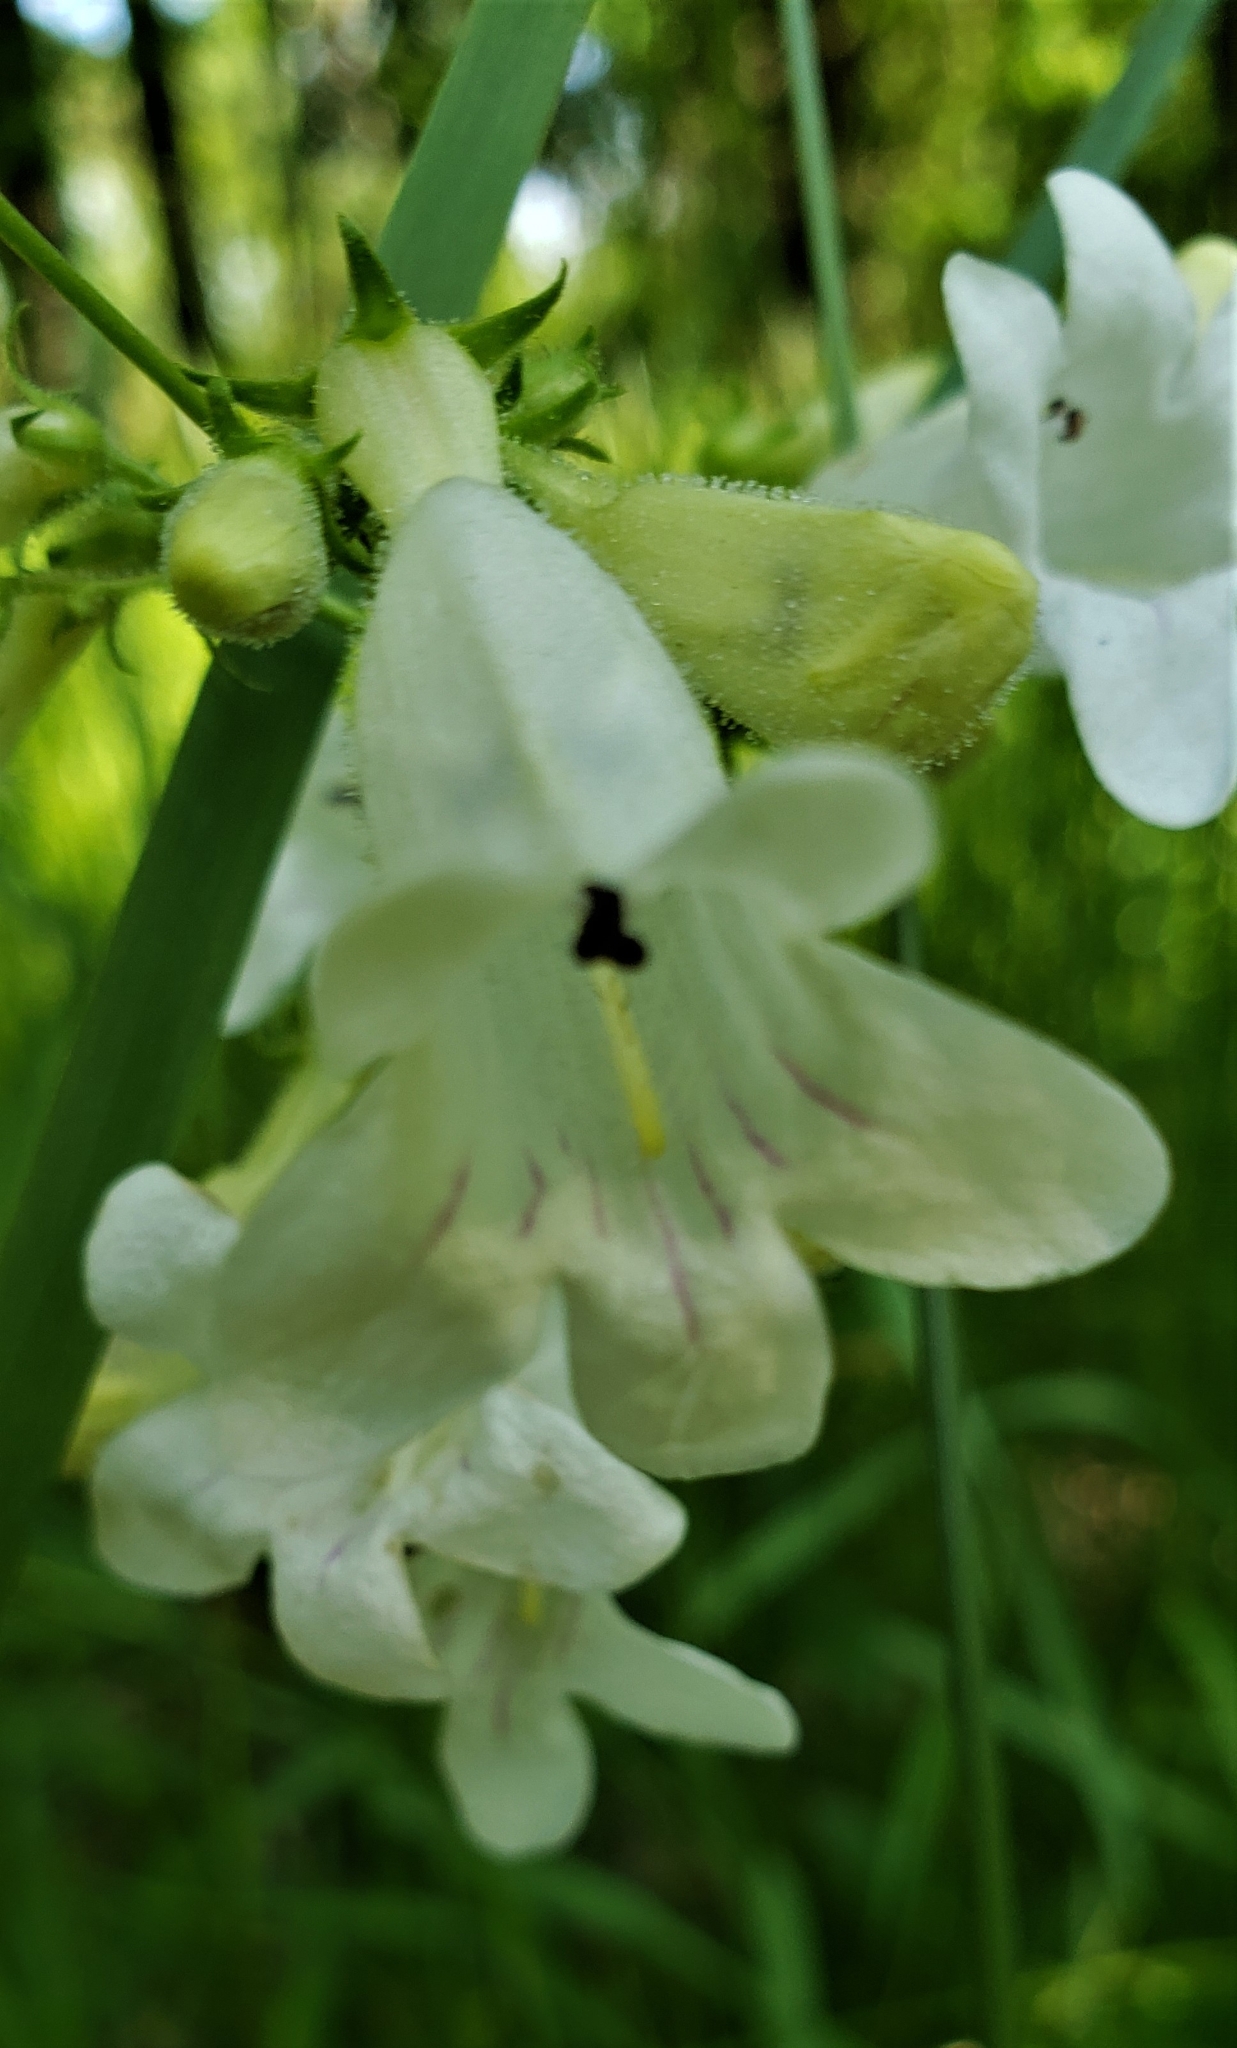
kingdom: Plantae
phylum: Tracheophyta
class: Magnoliopsida
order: Lamiales
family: Plantaginaceae
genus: Penstemon
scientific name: Penstemon digitalis
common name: Foxglove beardtongue
